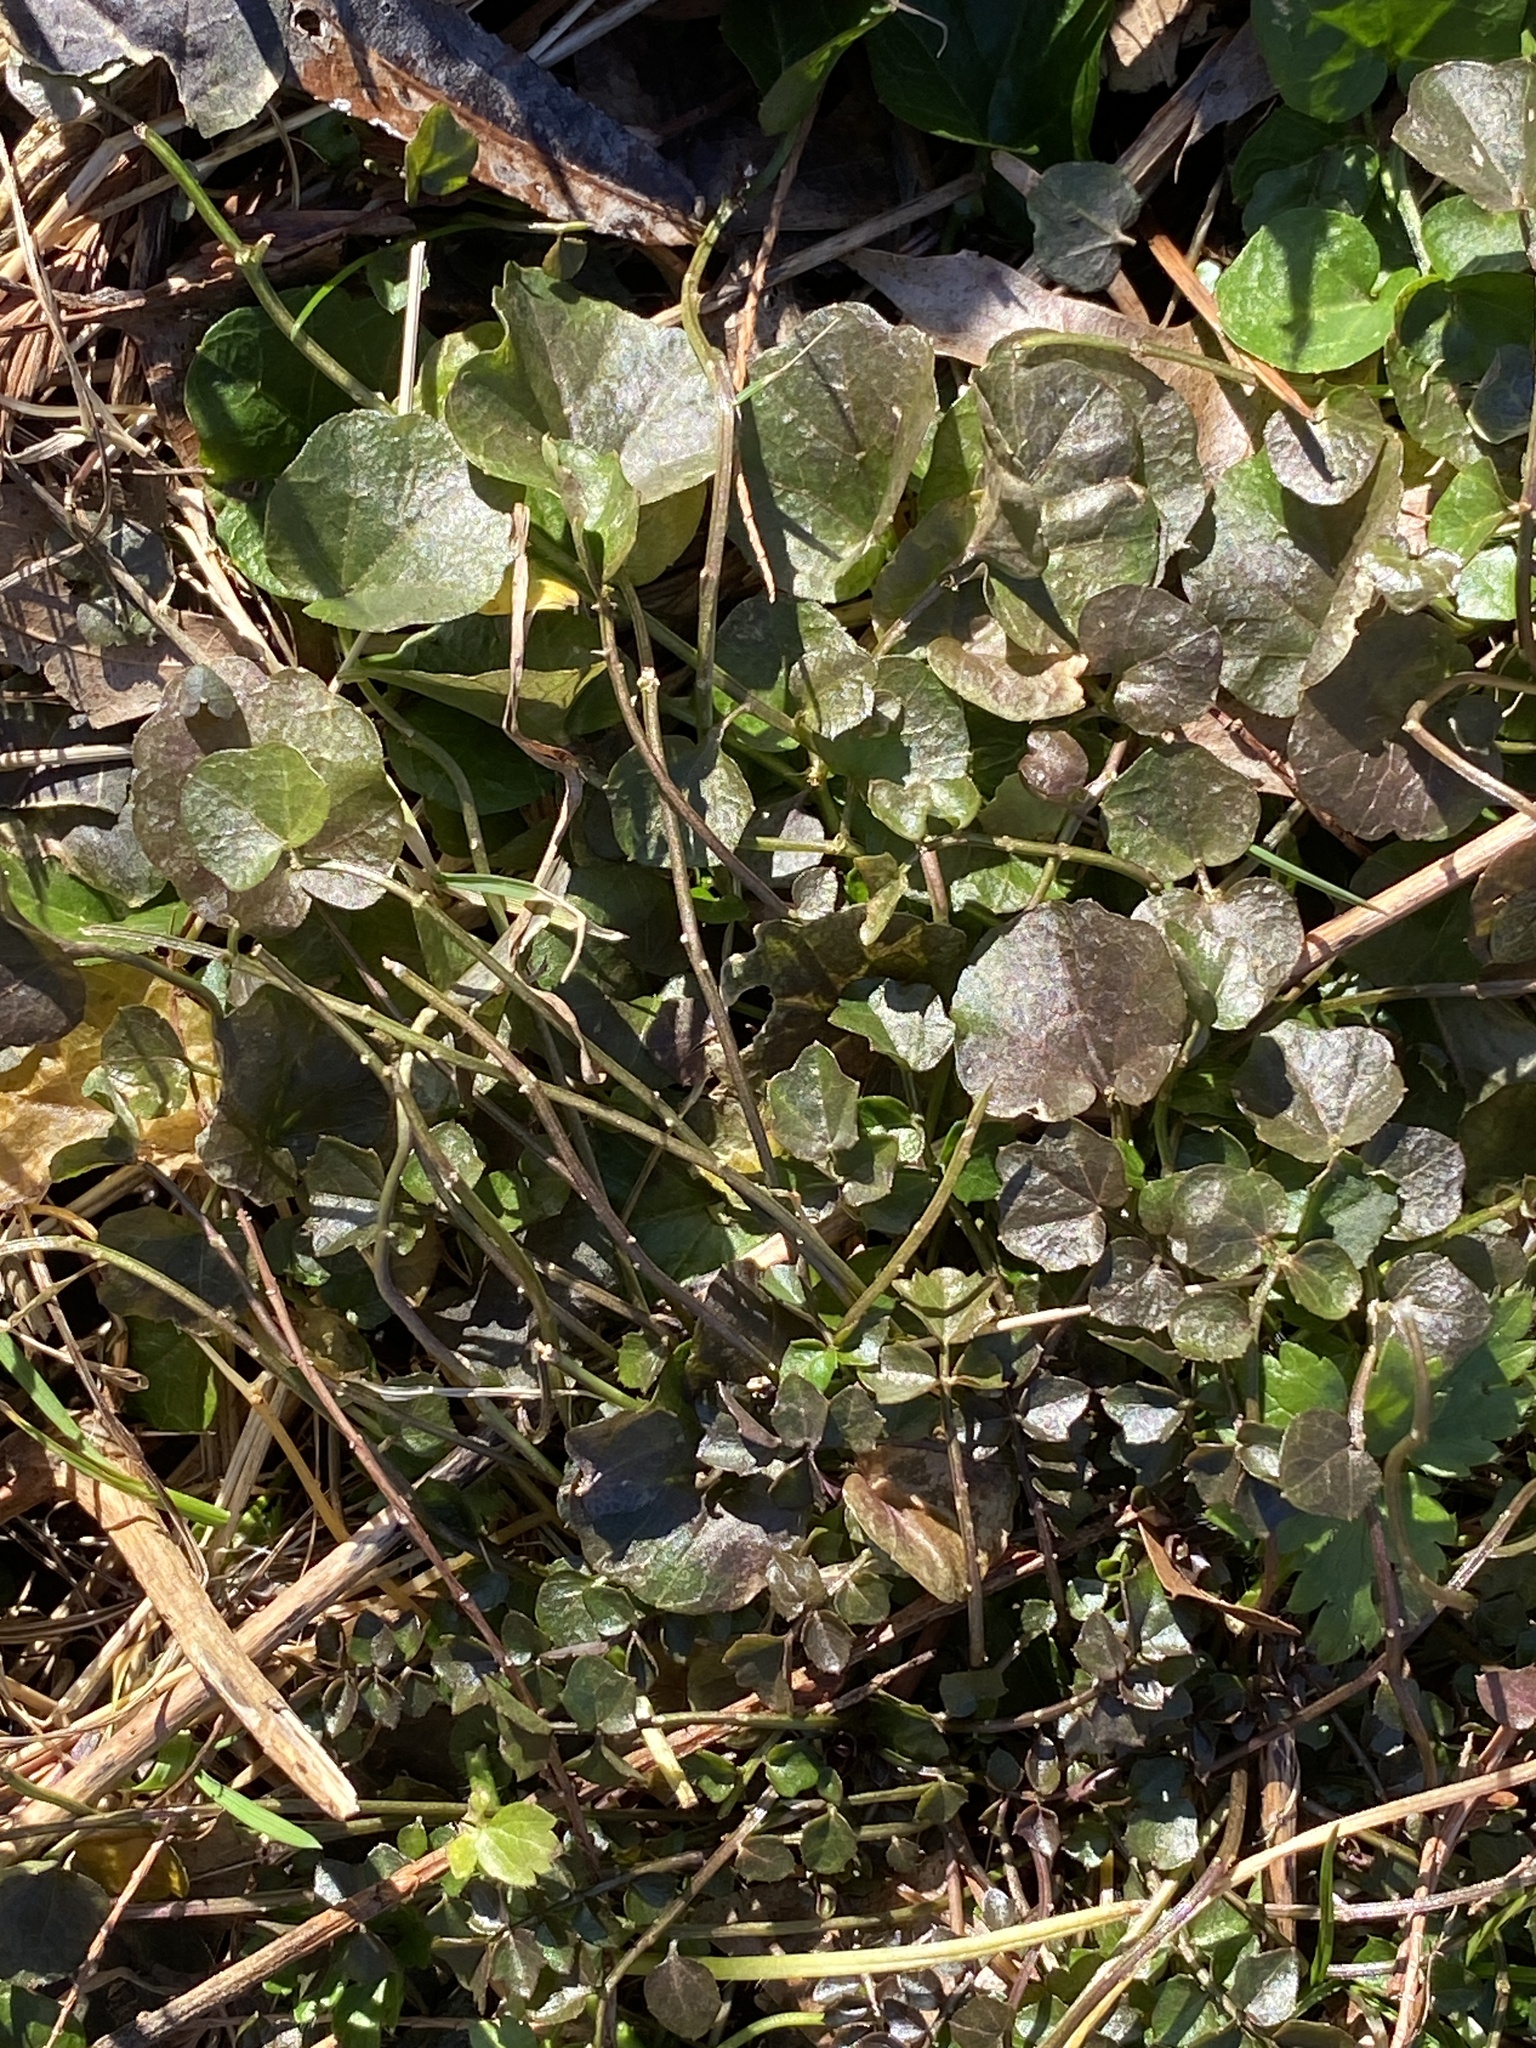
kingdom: Plantae
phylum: Tracheophyta
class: Magnoliopsida
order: Brassicales
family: Brassicaceae
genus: Cardamine
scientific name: Cardamine hirsuta
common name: Hairy bittercress
